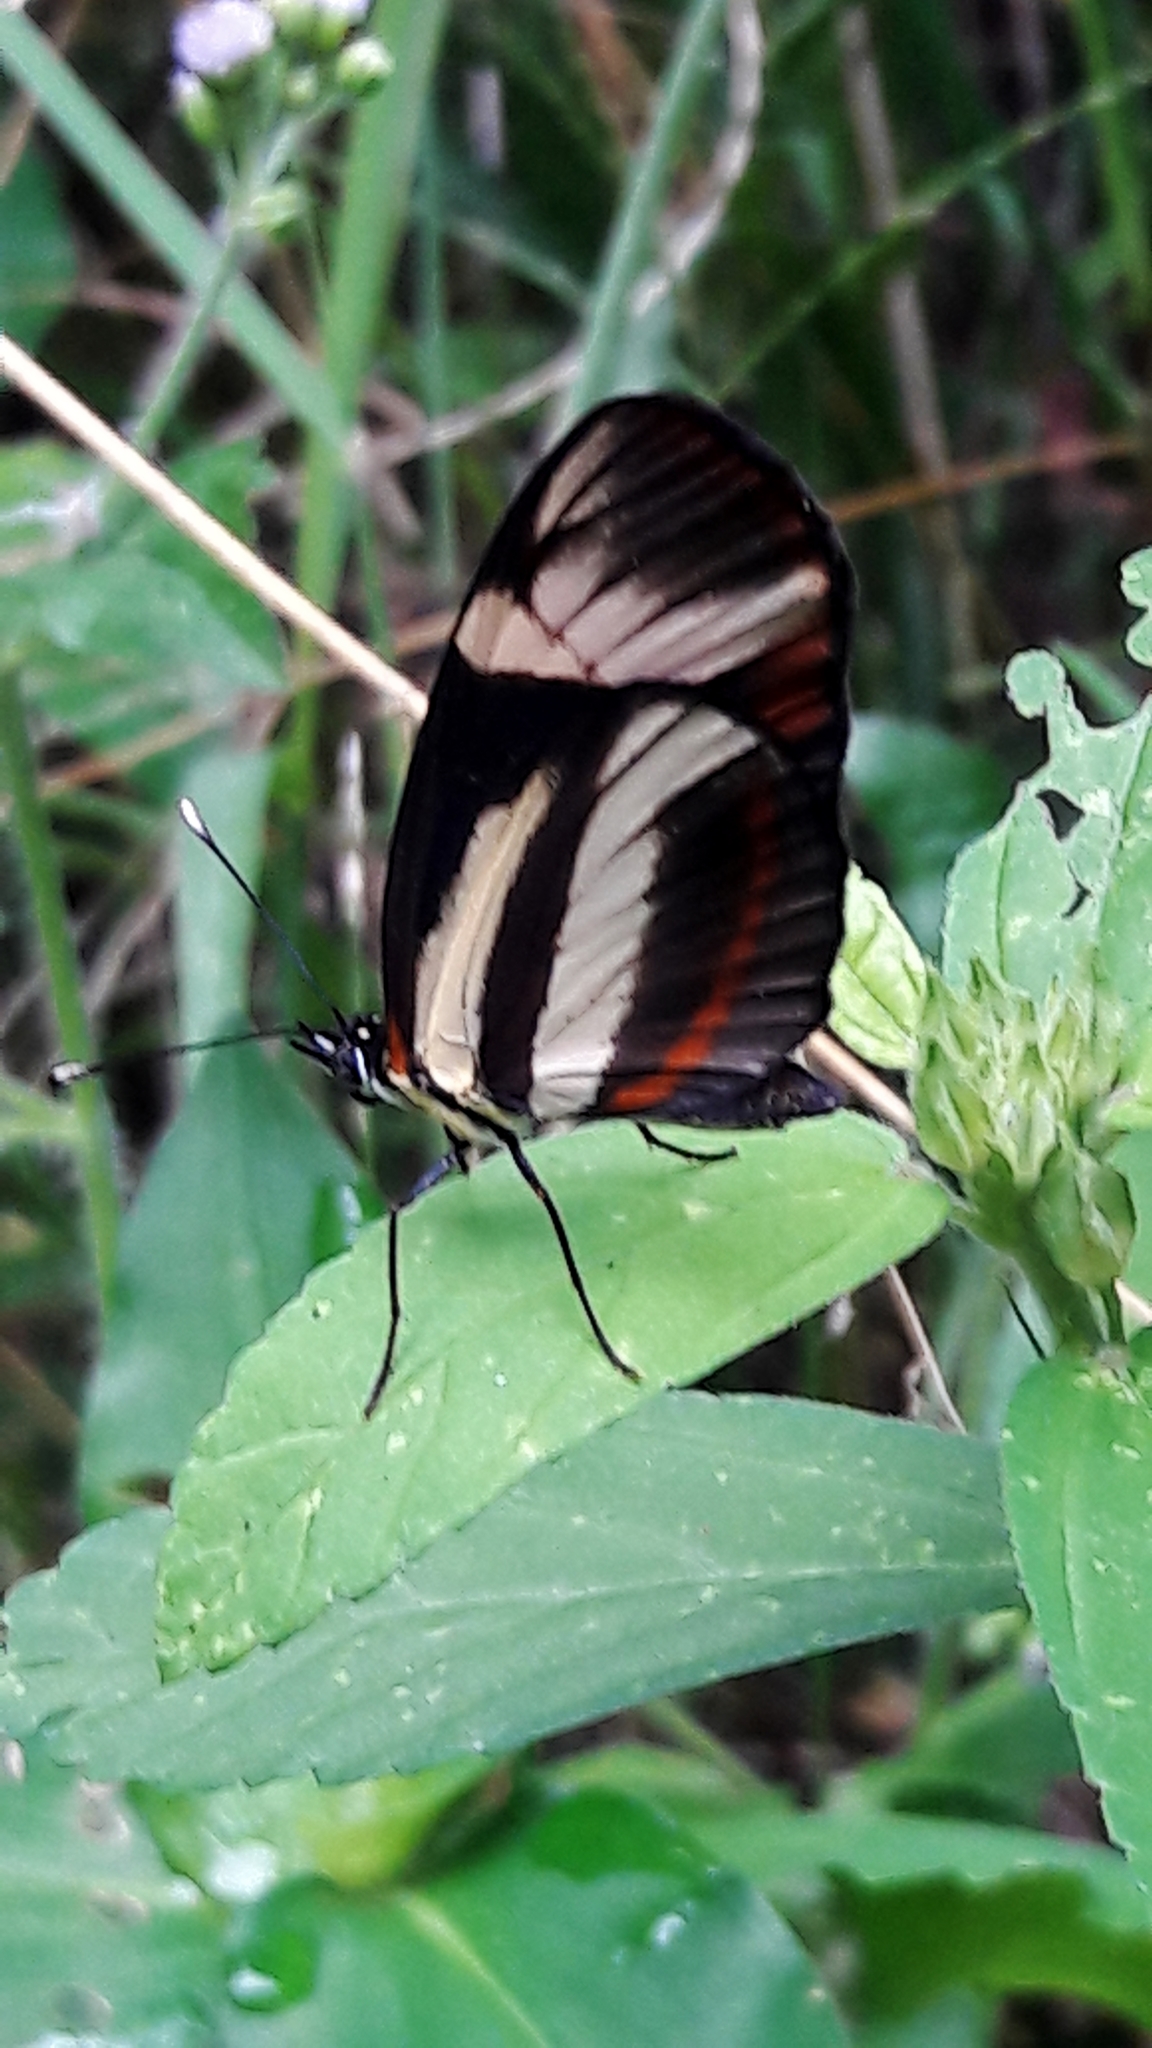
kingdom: Animalia
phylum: Arthropoda
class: Insecta
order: Lepidoptera
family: Nymphalidae
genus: Eresia
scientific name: Eresia lansdorfi
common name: Lansdorf's crescent
